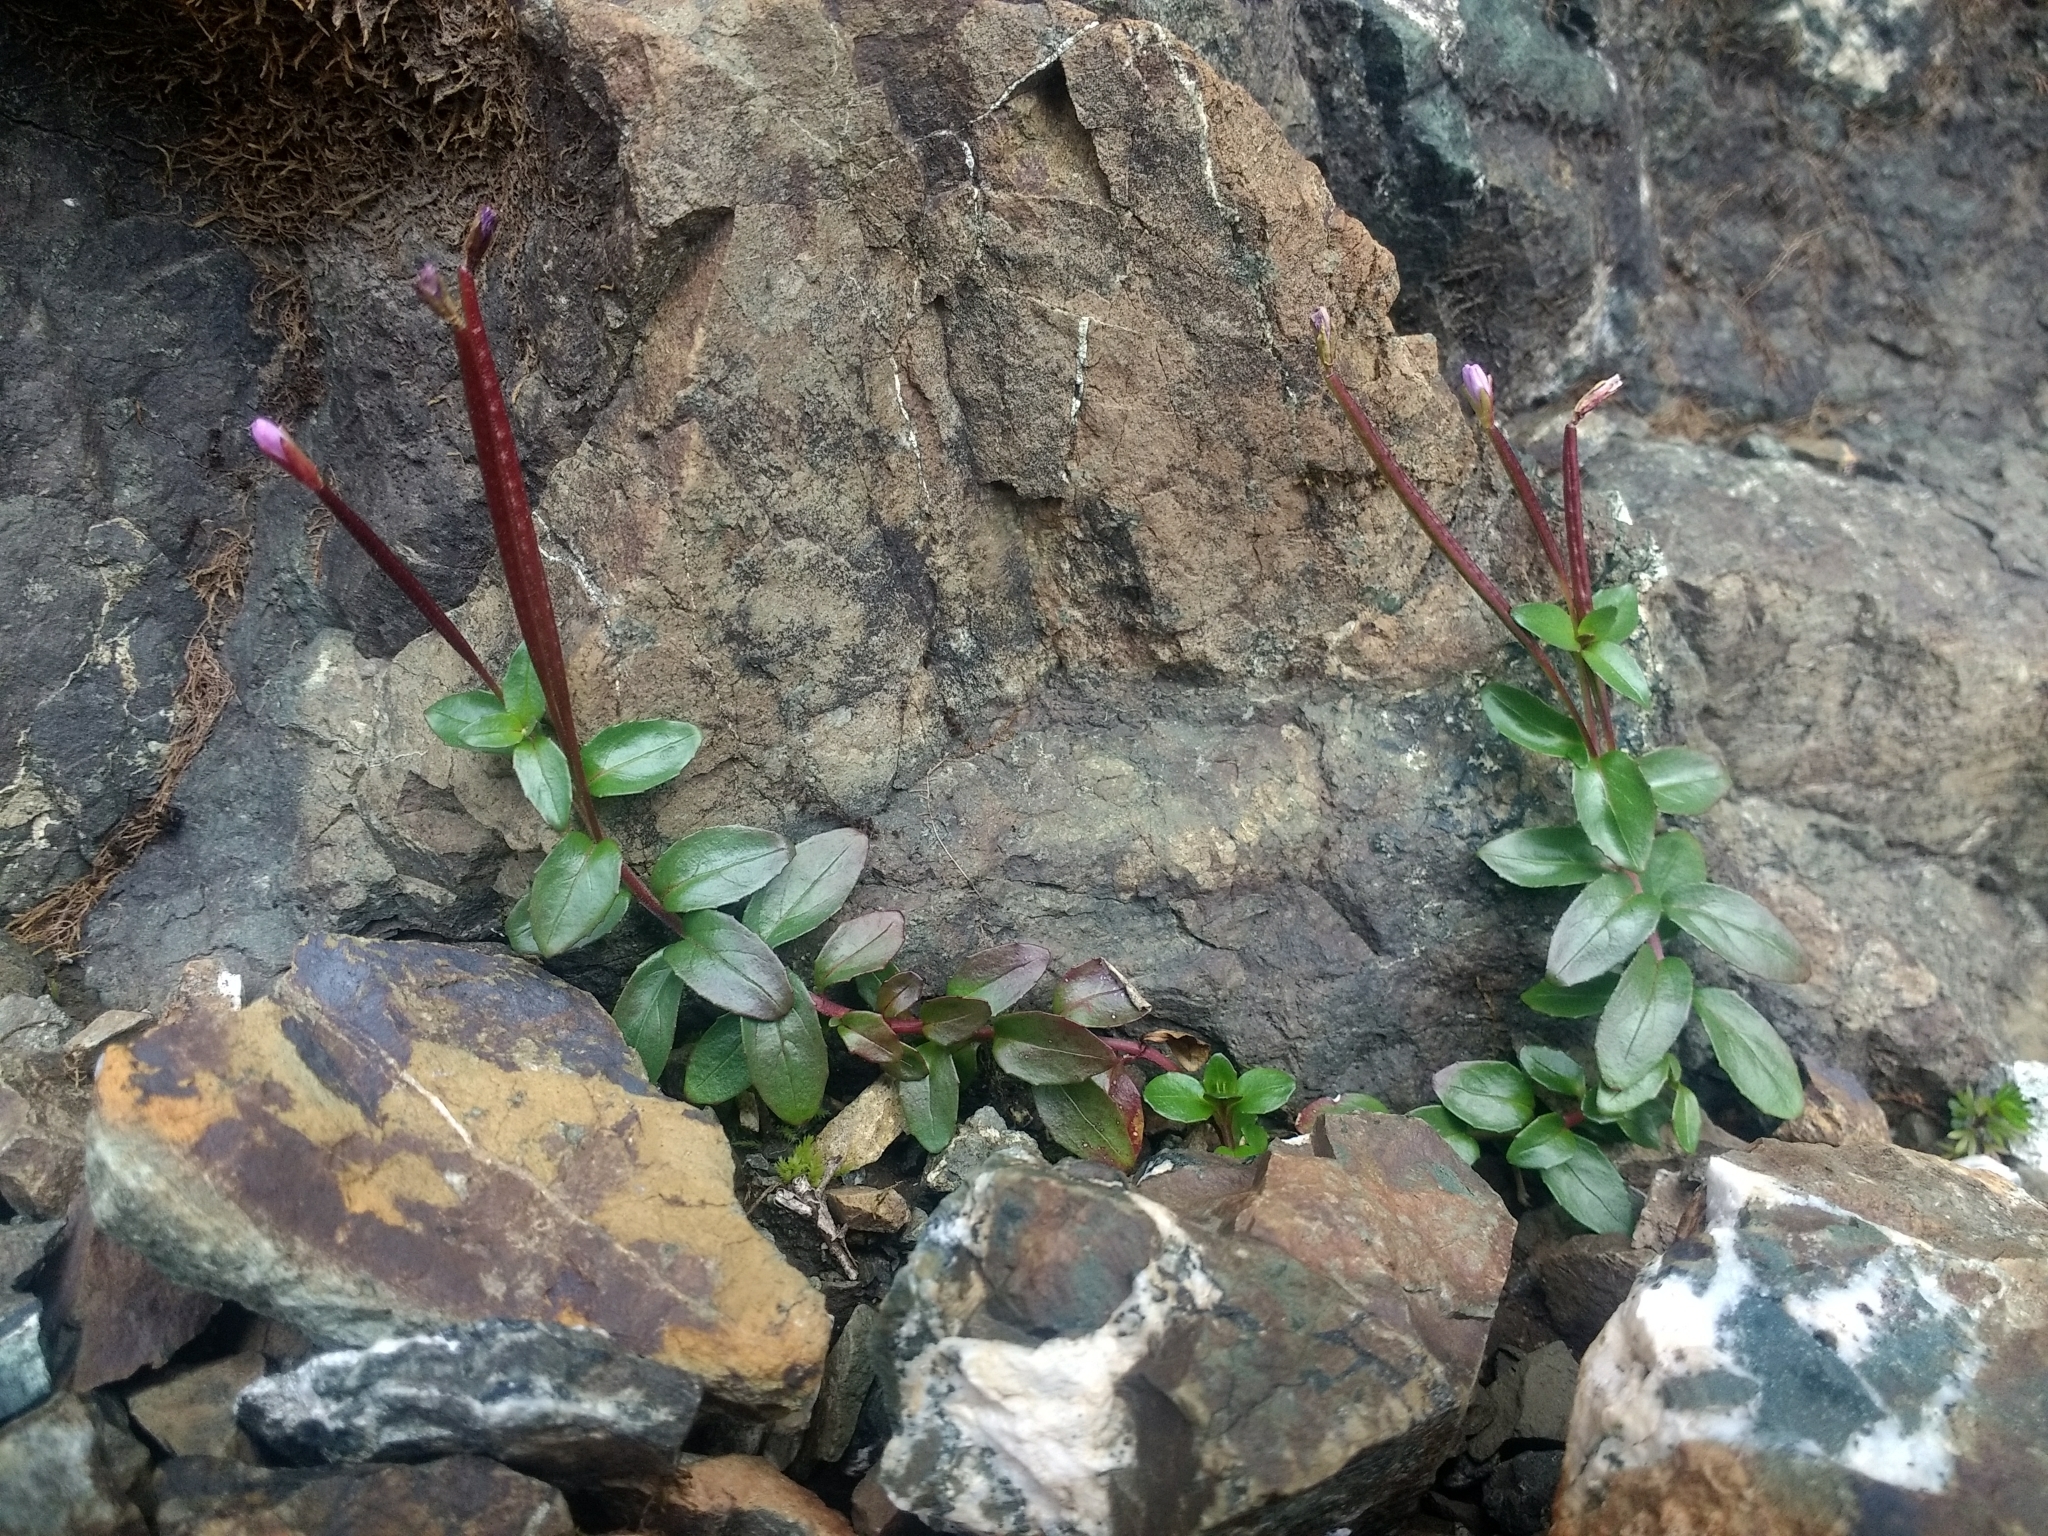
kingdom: Plantae
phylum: Tracheophyta
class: Magnoliopsida
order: Myrtales
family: Onagraceae
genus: Epilobium
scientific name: Epilobium clavatum
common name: Clavate-fruit willowherb
